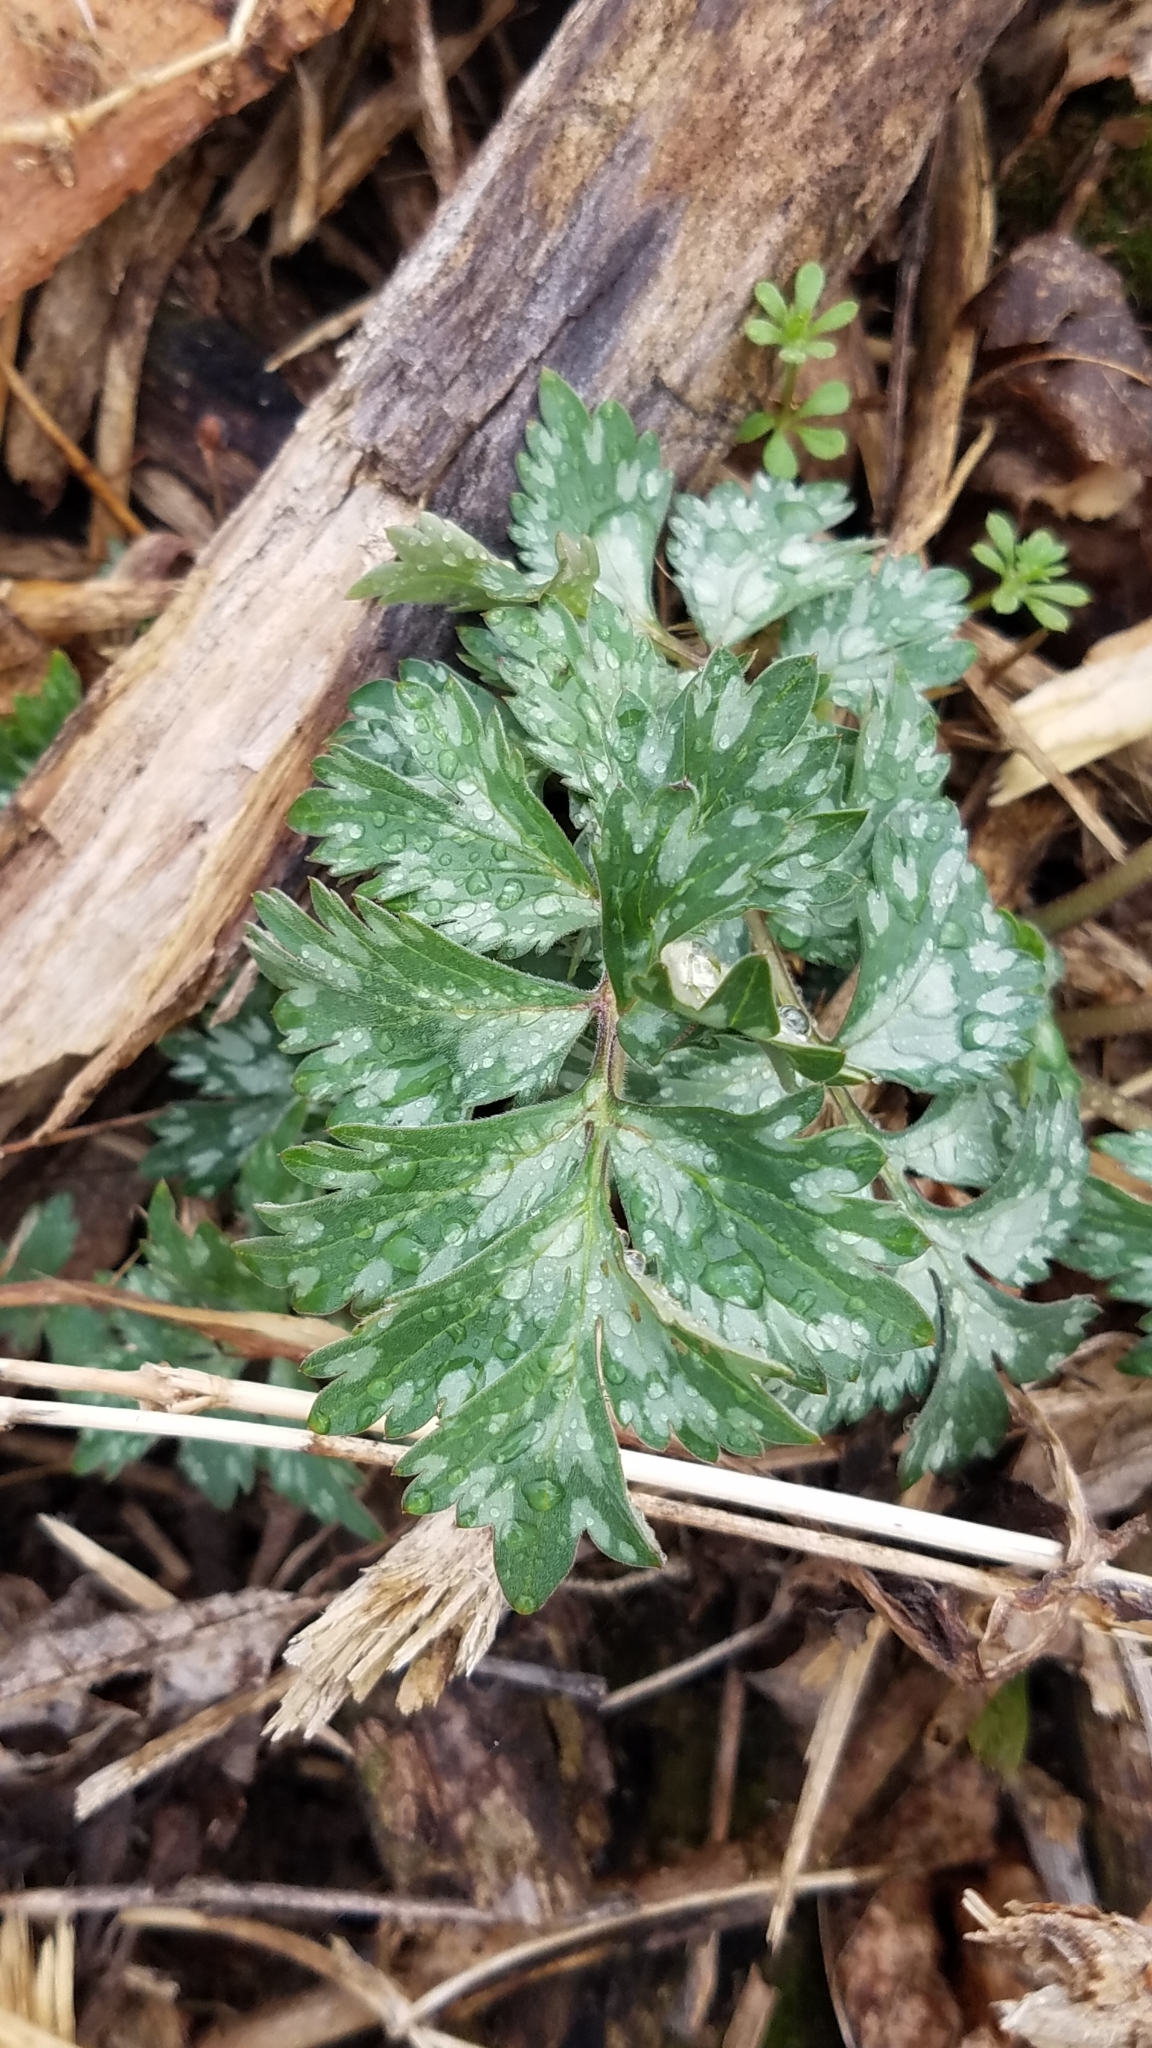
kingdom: Plantae
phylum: Tracheophyta
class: Magnoliopsida
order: Boraginales
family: Hydrophyllaceae
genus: Hydrophyllum
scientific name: Hydrophyllum virginianum
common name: Virginia waterleaf
